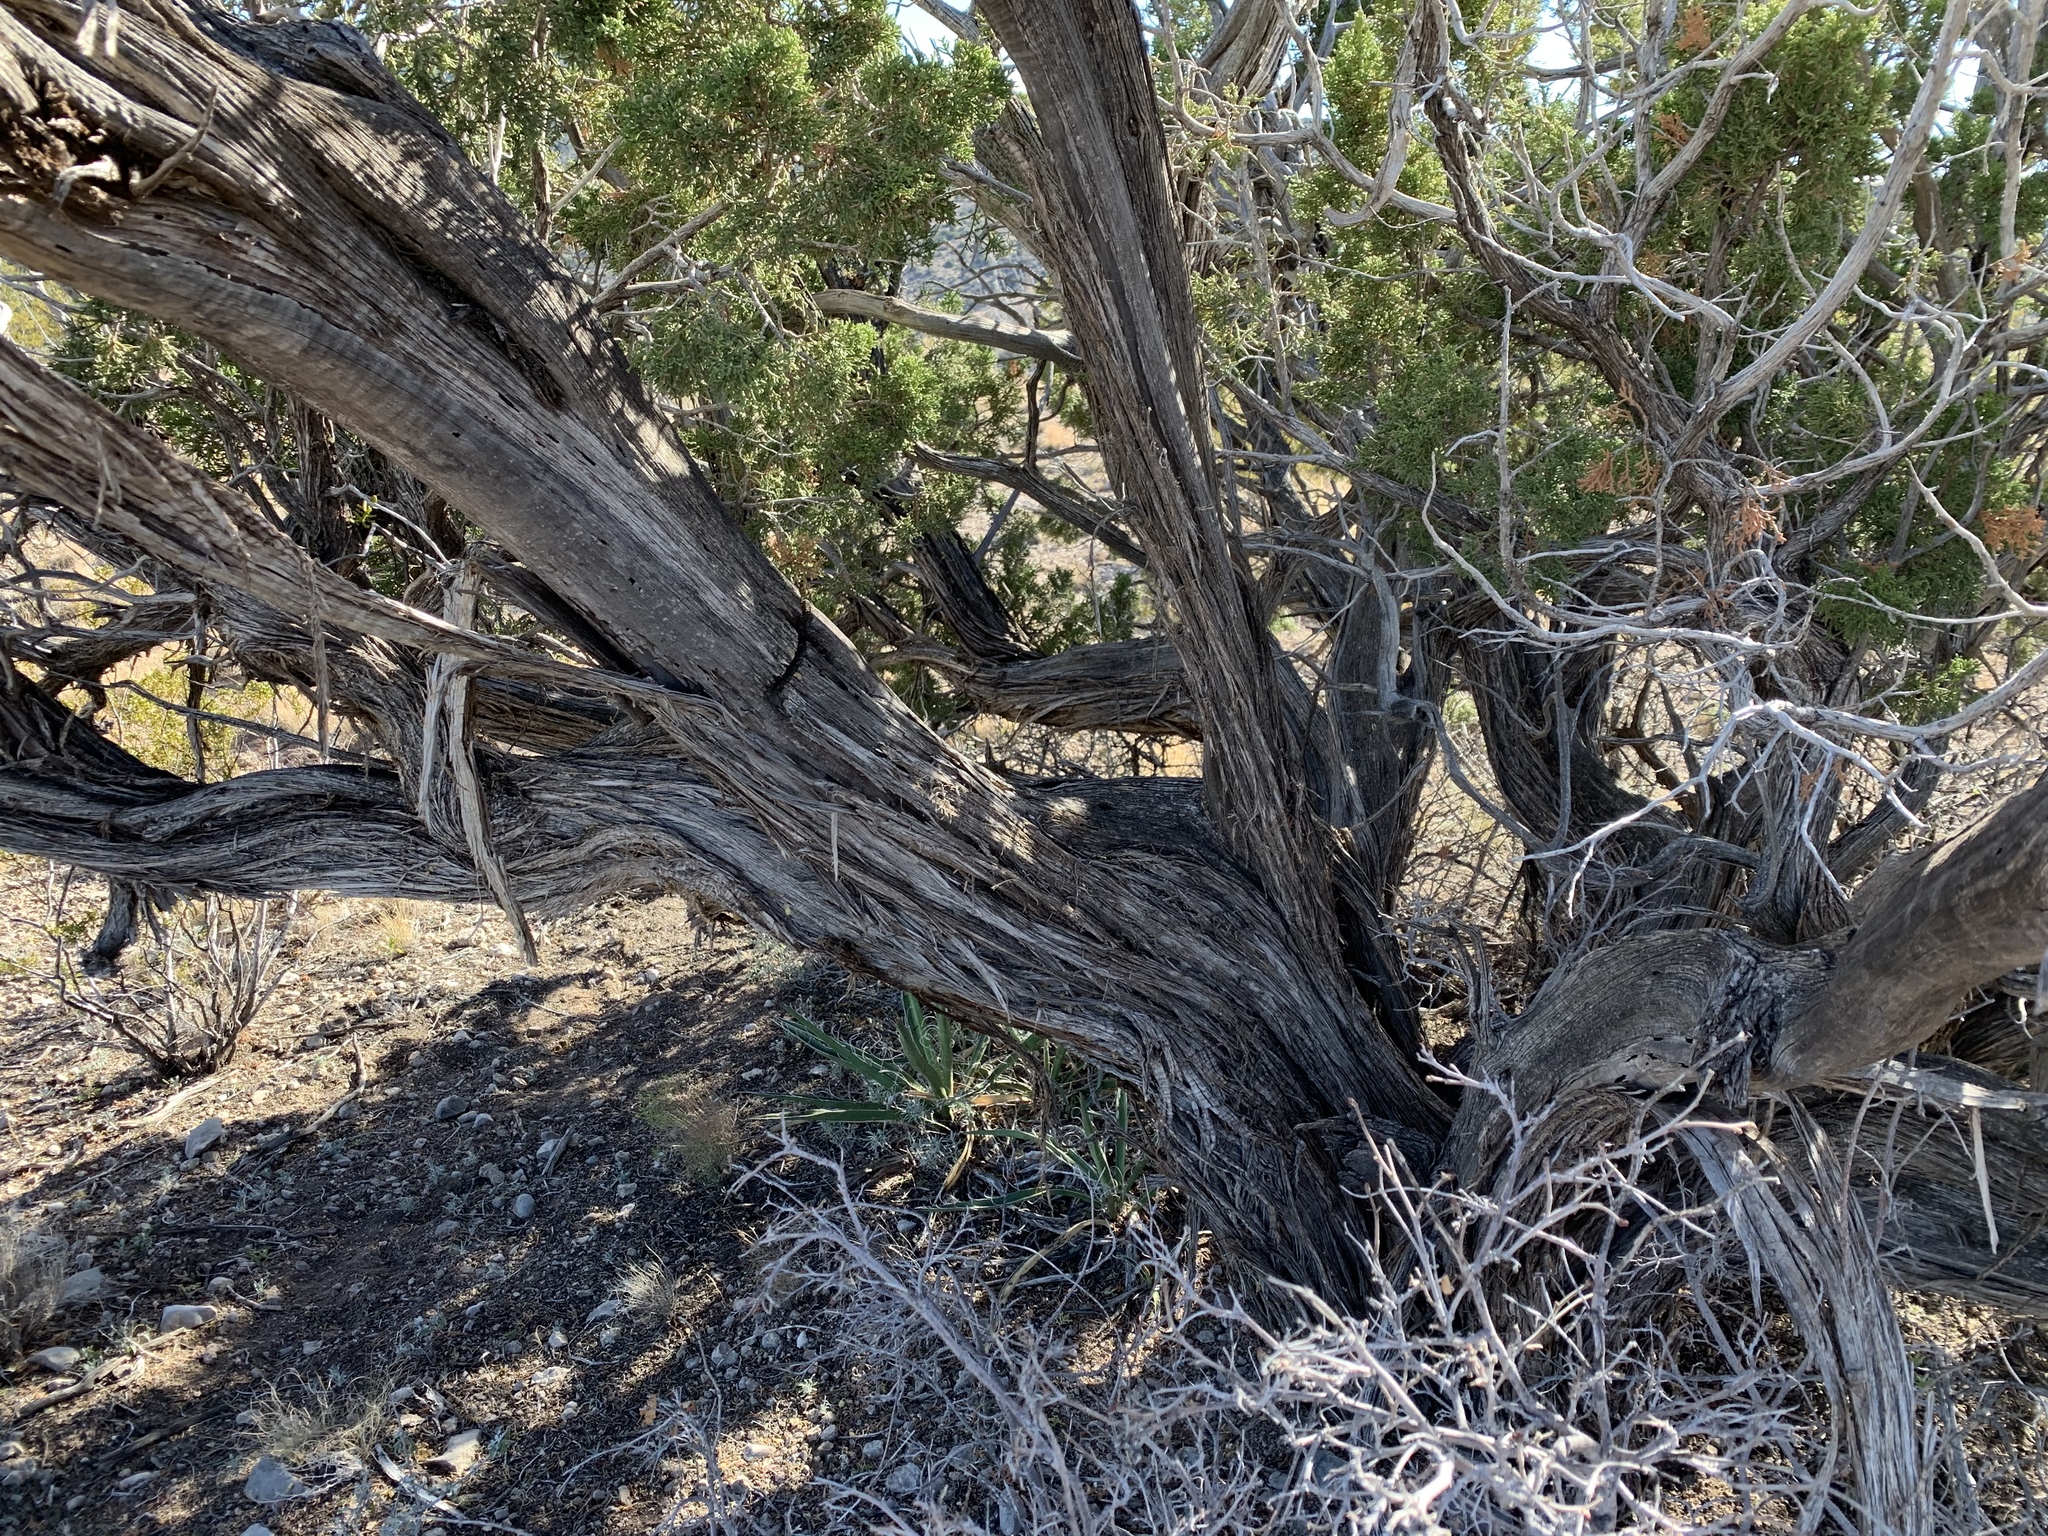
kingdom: Plantae
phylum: Tracheophyta
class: Pinopsida
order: Pinales
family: Cupressaceae
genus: Juniperus
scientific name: Juniperus monosperma
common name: One-seed juniper
